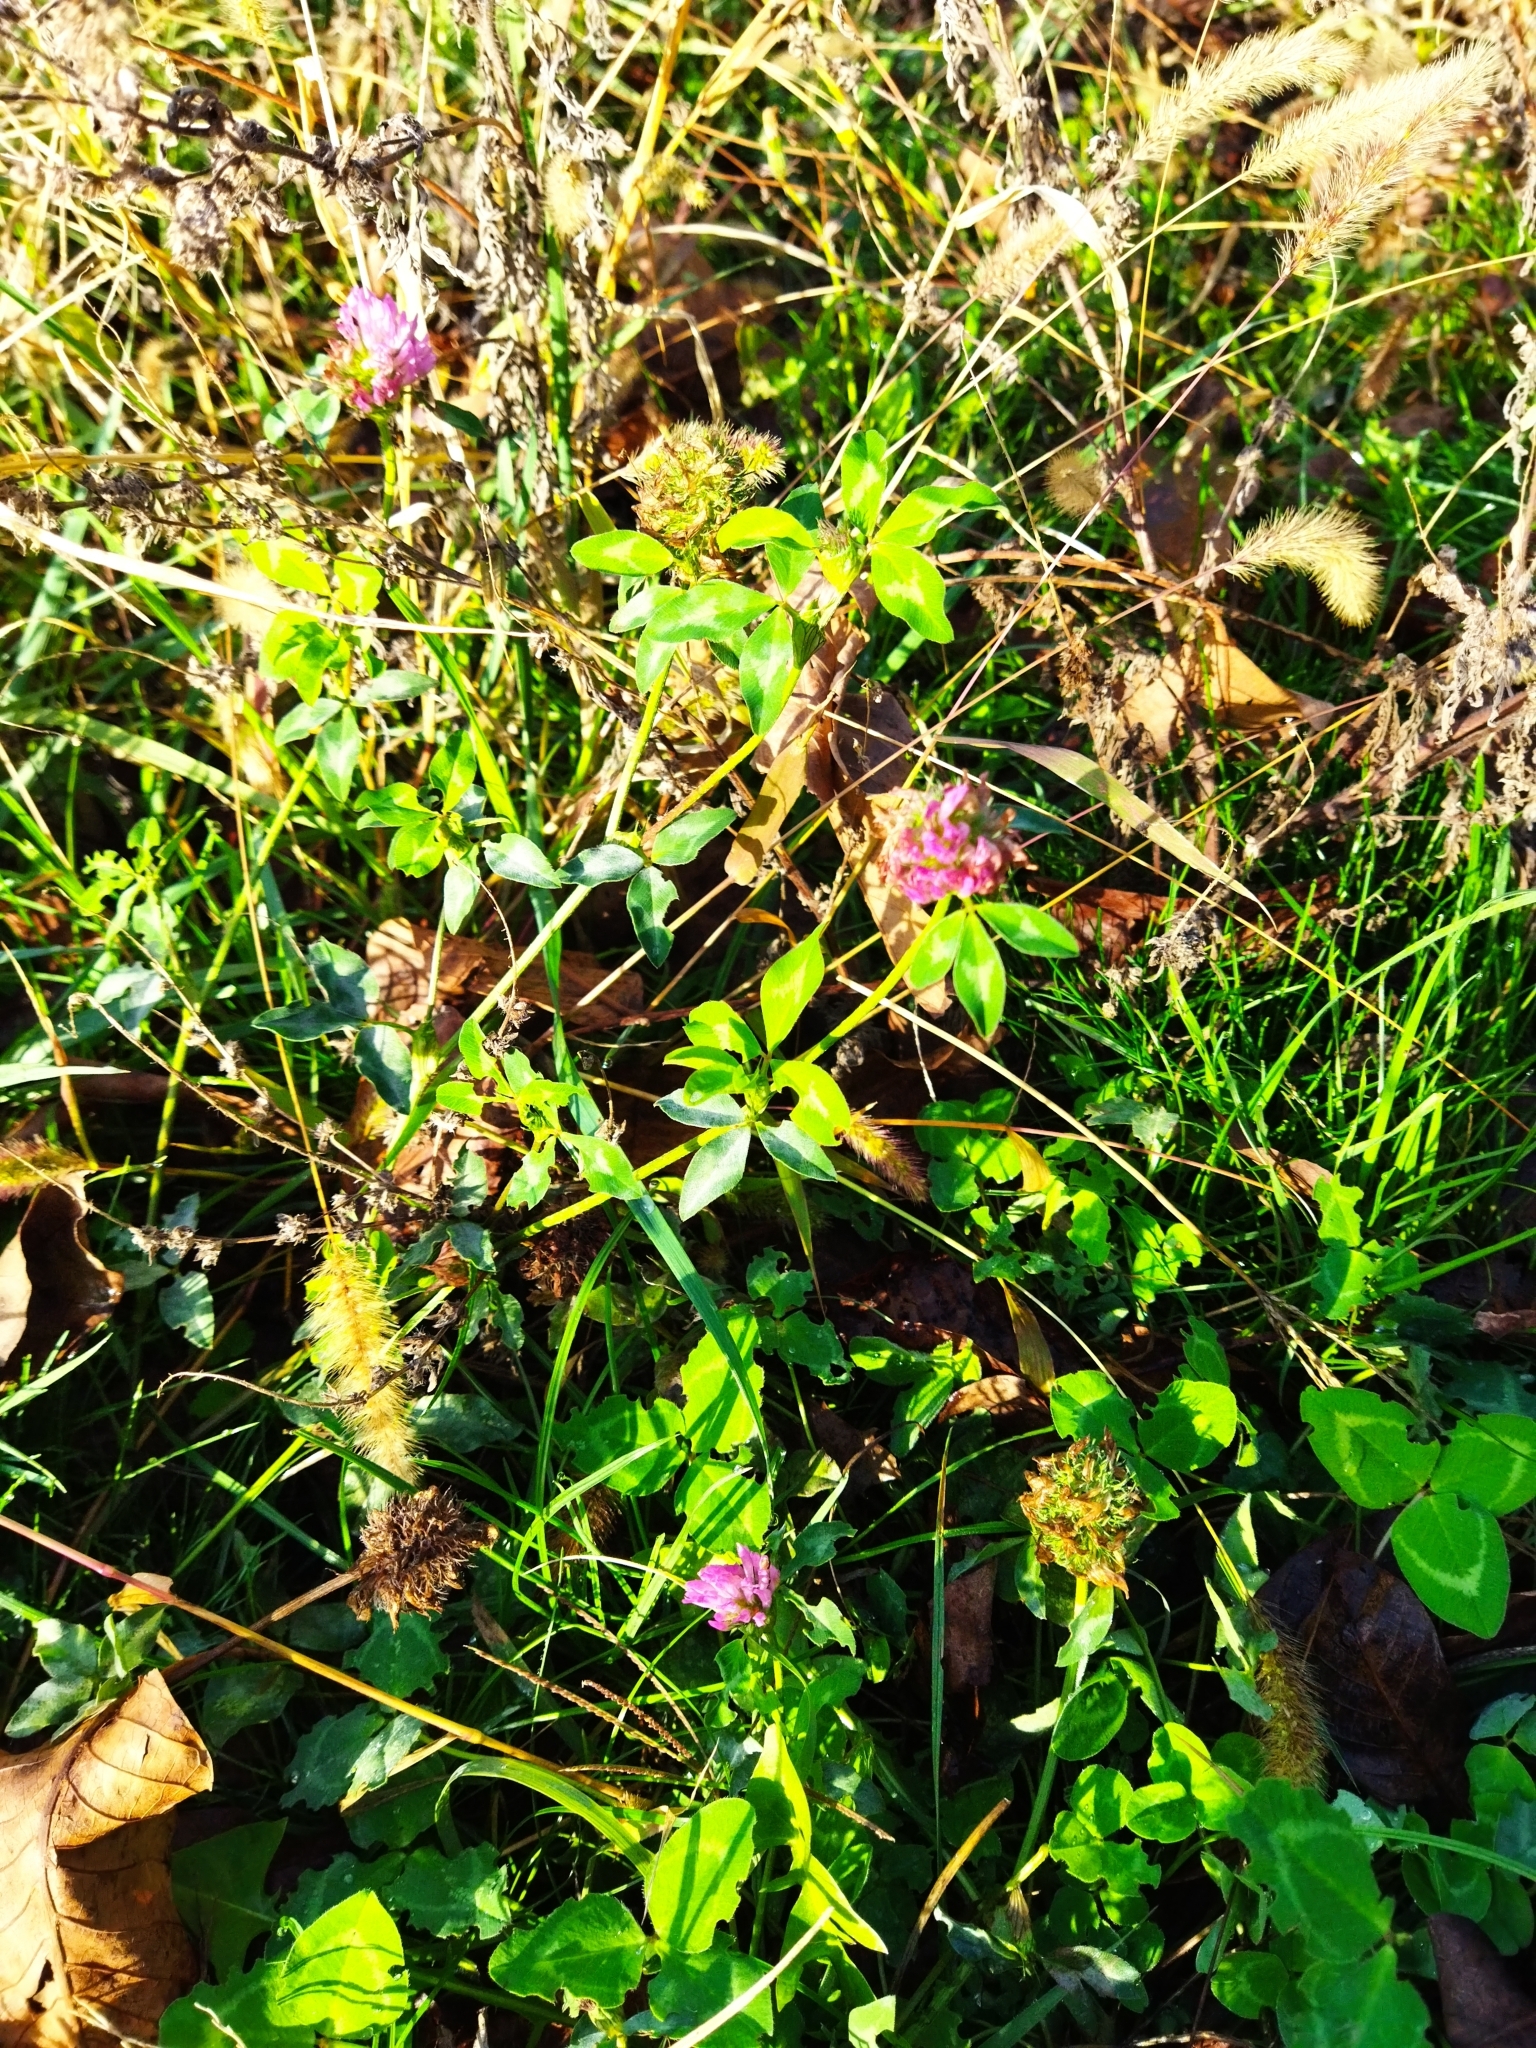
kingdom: Plantae
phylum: Tracheophyta
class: Magnoliopsida
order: Fabales
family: Fabaceae
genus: Trifolium
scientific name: Trifolium pratense
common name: Red clover
